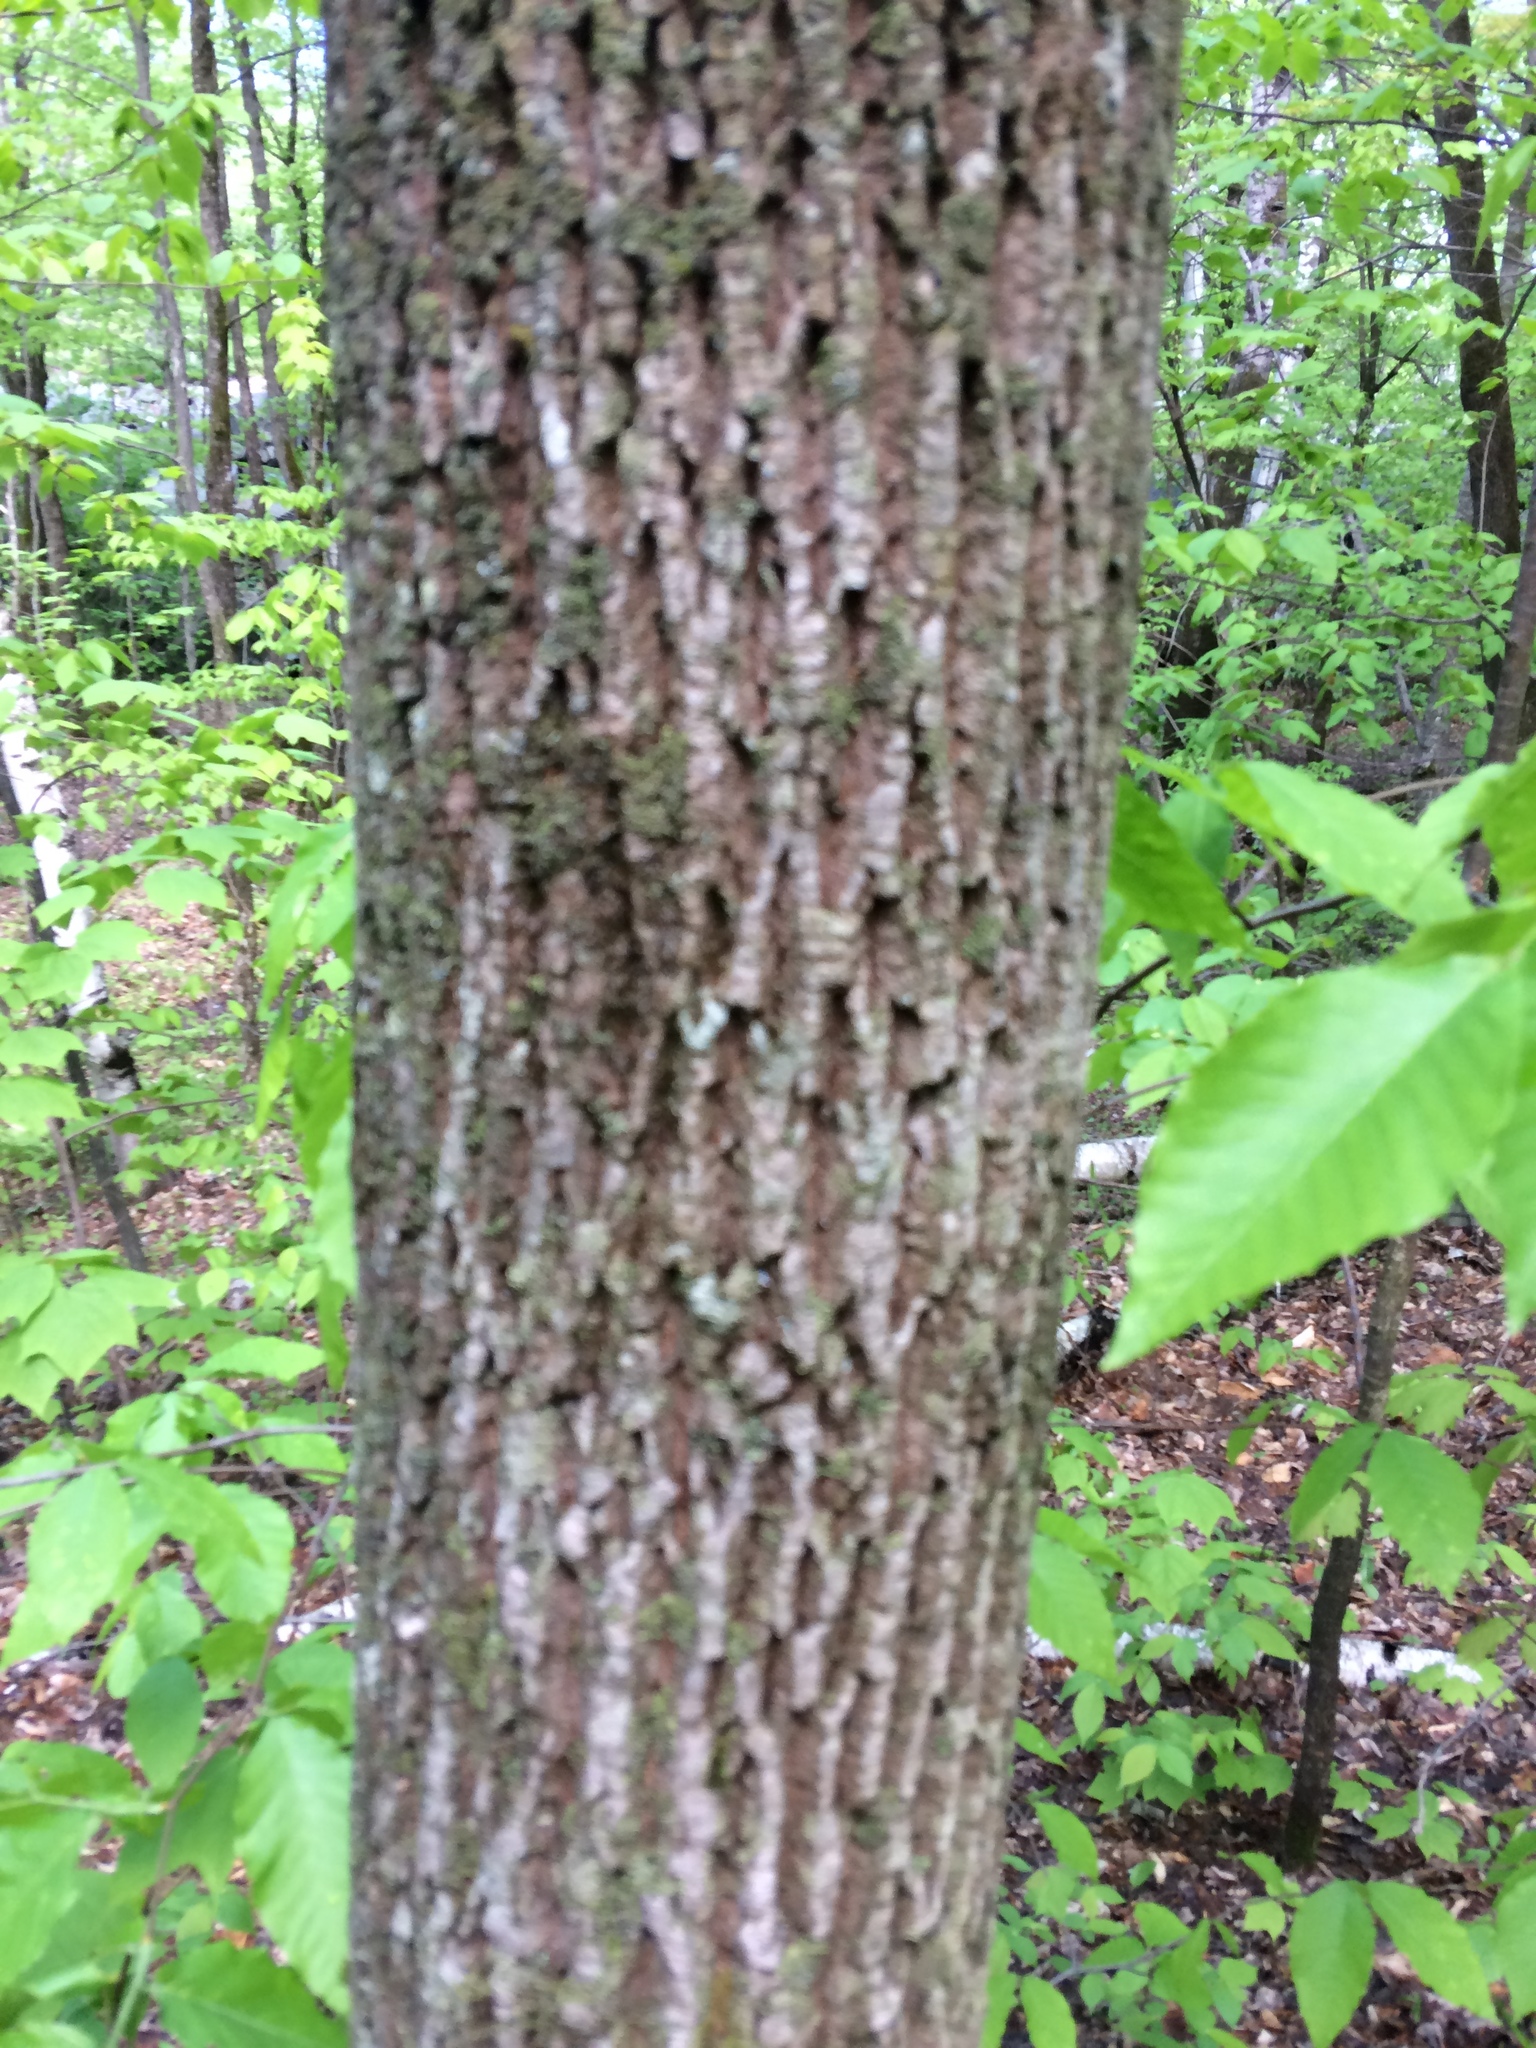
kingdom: Plantae
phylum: Tracheophyta
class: Magnoliopsida
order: Lamiales
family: Oleaceae
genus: Fraxinus
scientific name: Fraxinus americana
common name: White ash
